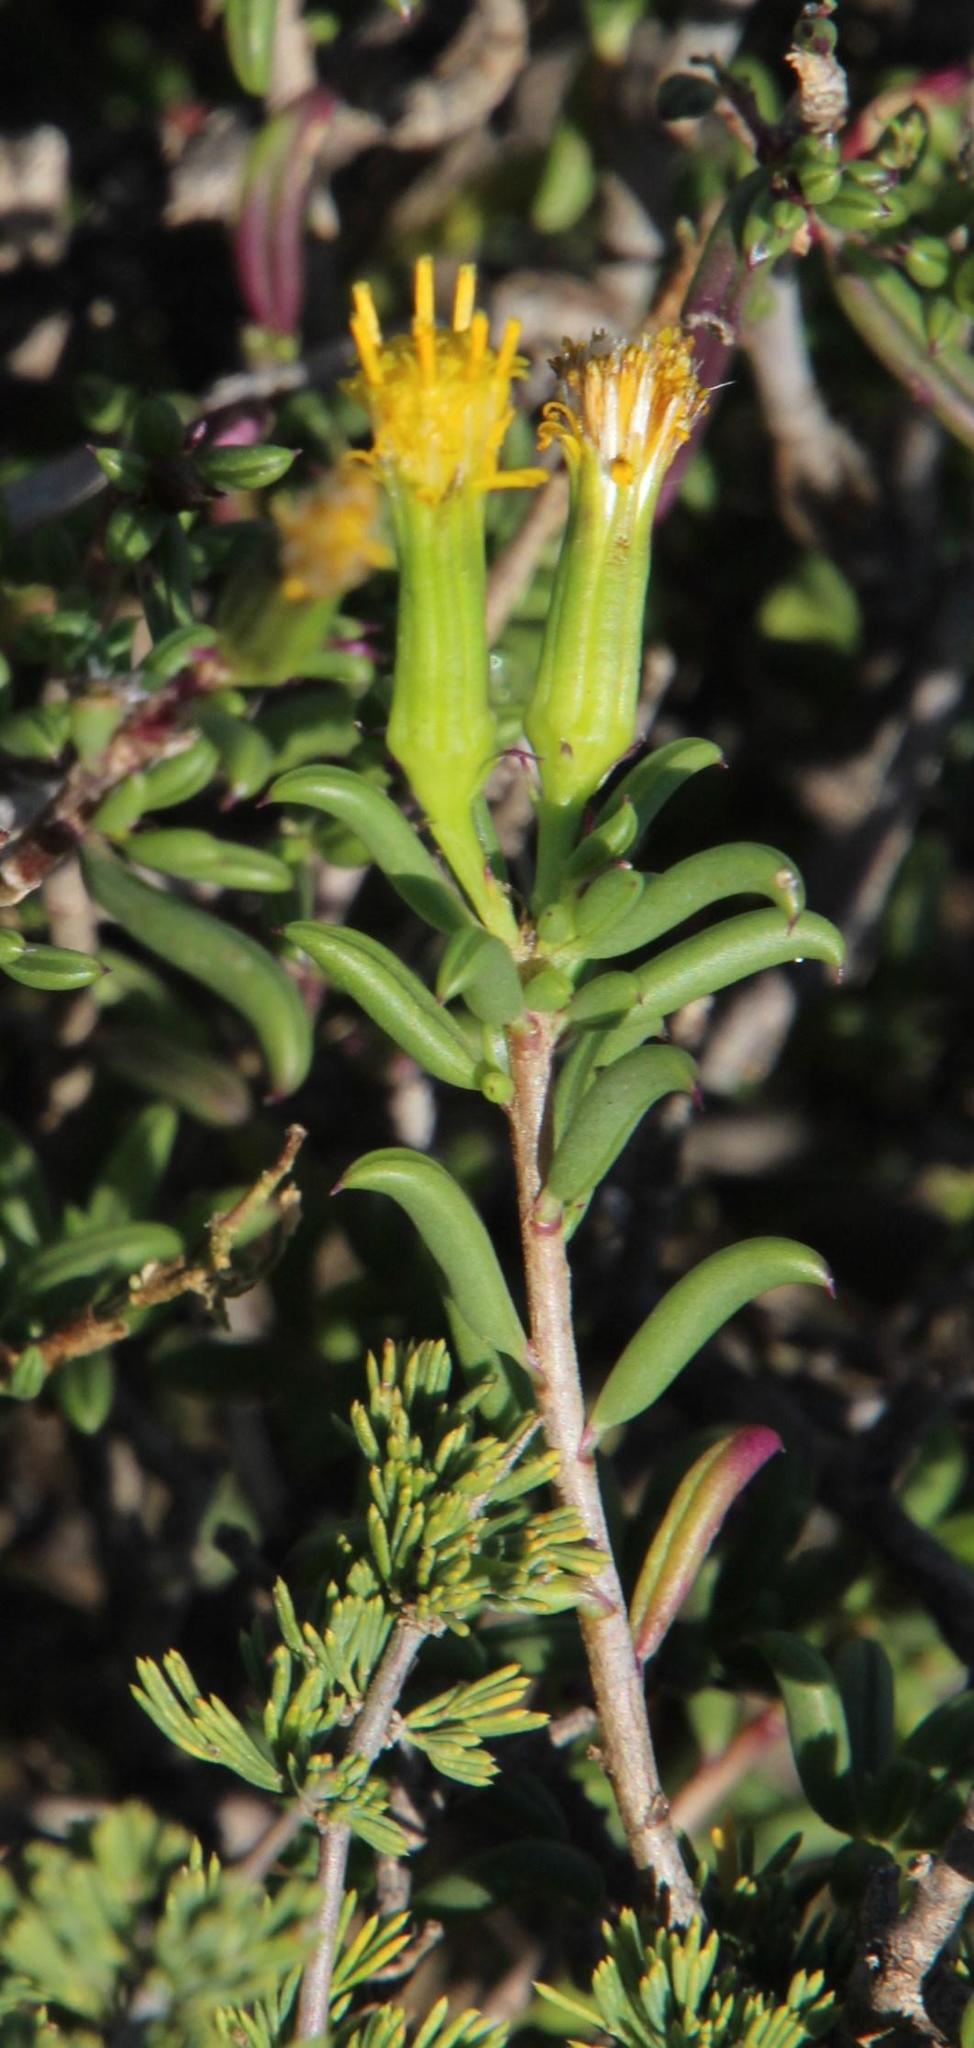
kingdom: Plantae
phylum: Tracheophyta
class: Magnoliopsida
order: Asterales
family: Asteraceae
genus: Senecio
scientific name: Senecio acutifolius
